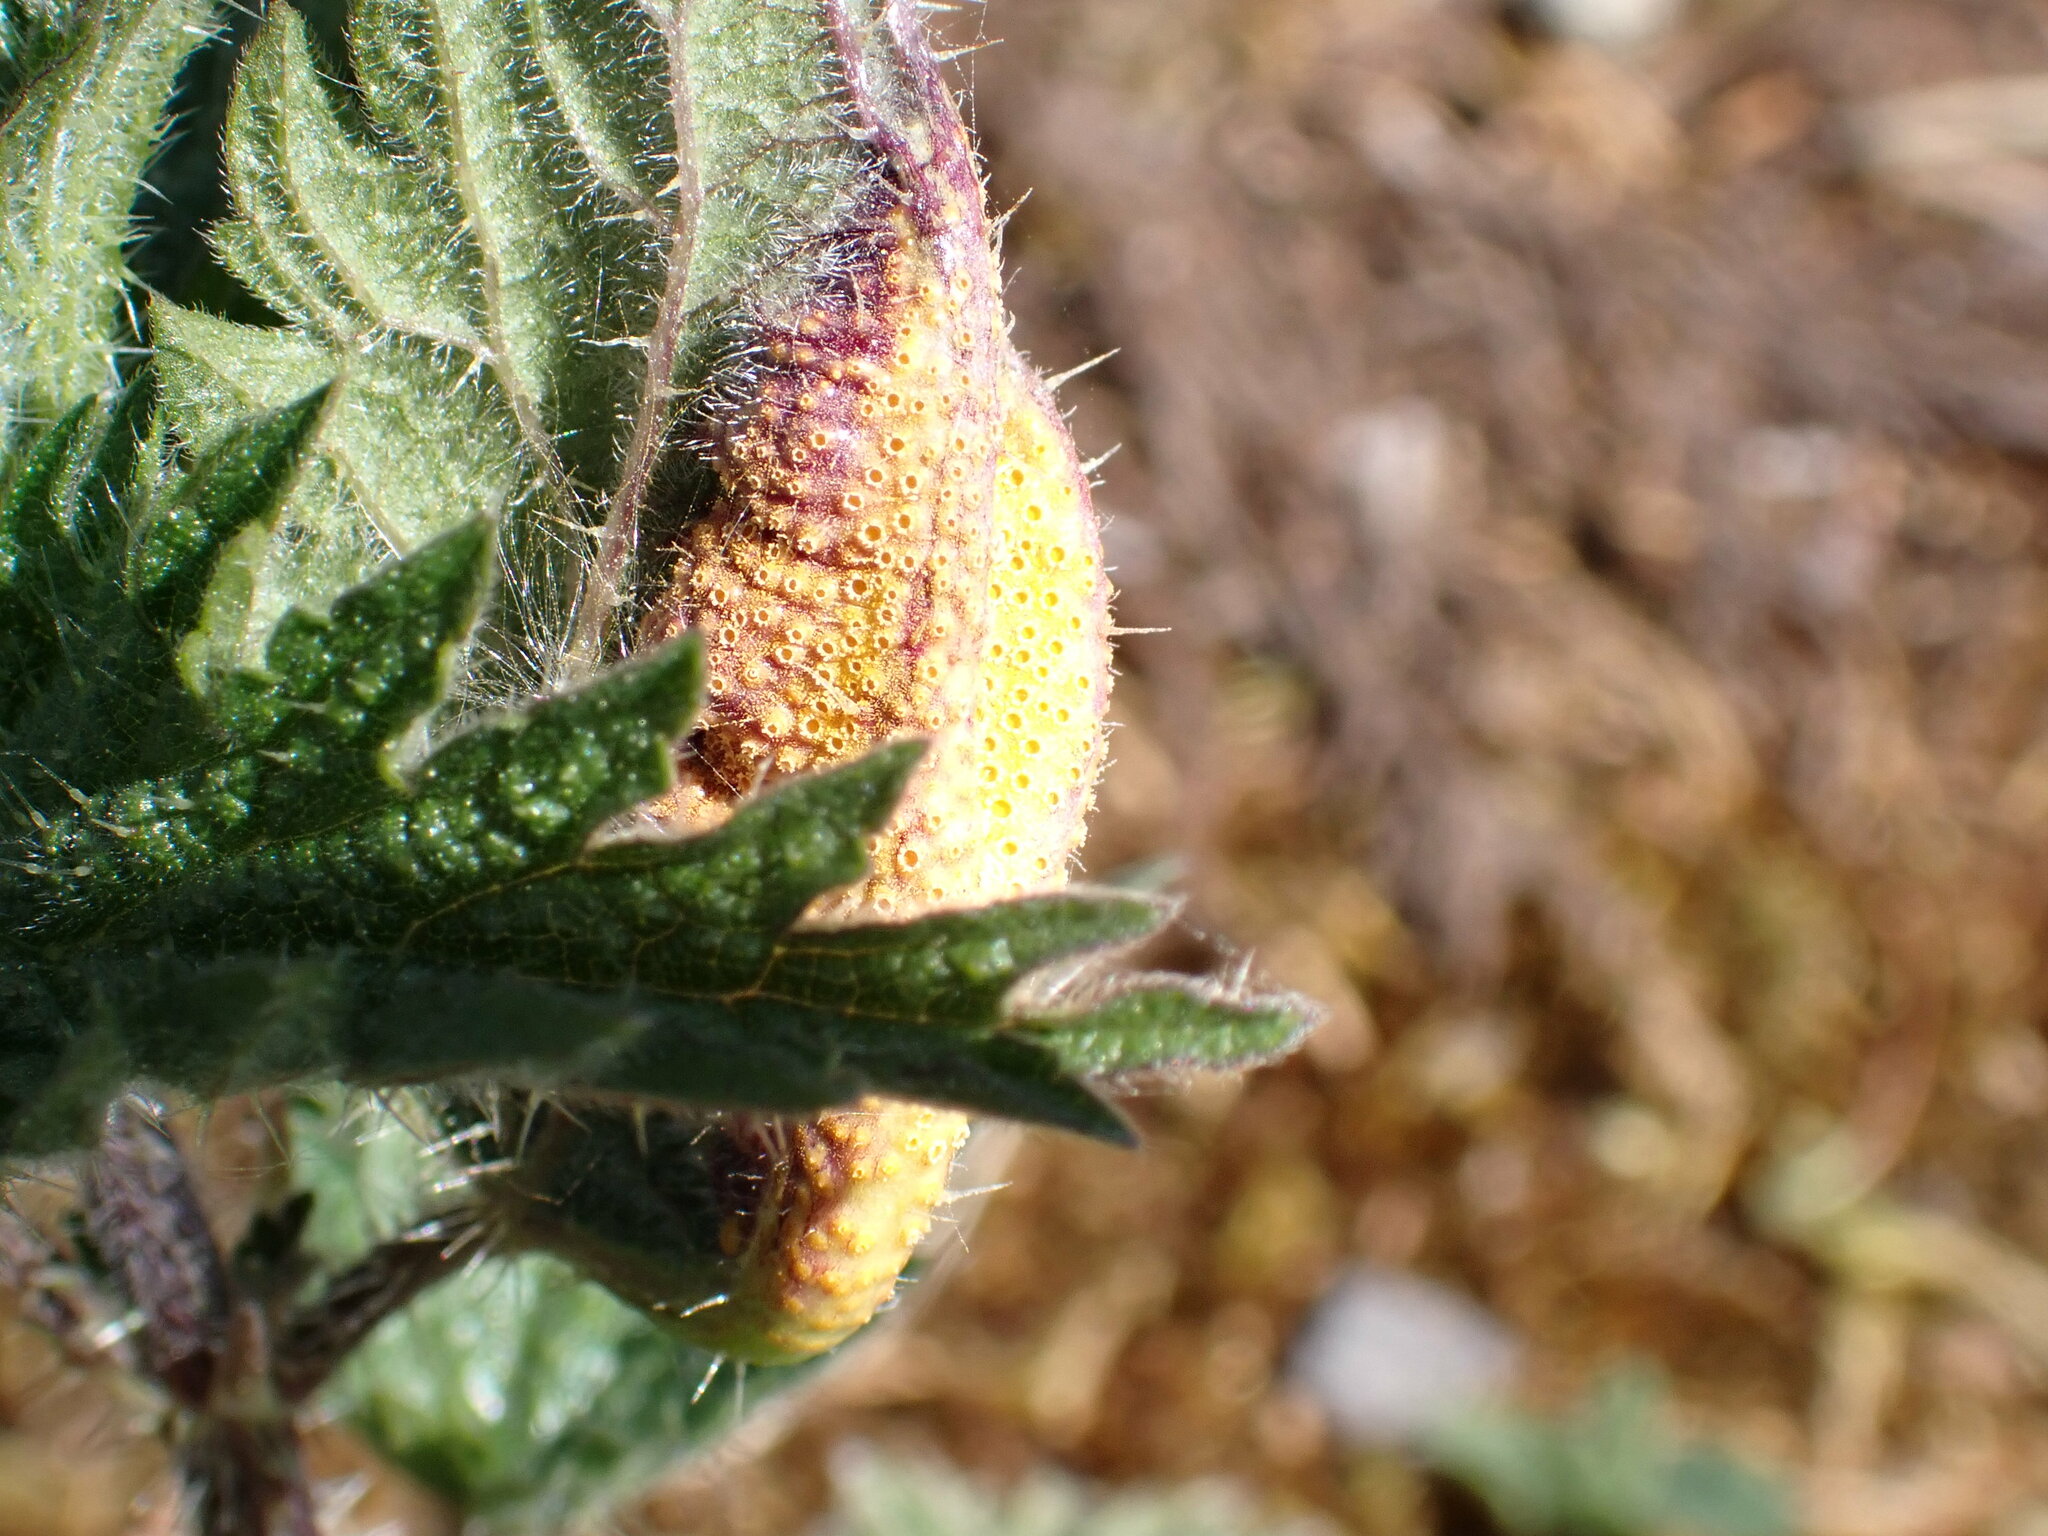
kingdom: Fungi
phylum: Basidiomycota
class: Pucciniomycetes
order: Pucciniales
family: Pucciniaceae
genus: Puccinia
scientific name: Puccinia urticata
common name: Nettle clustercup rust fungus
